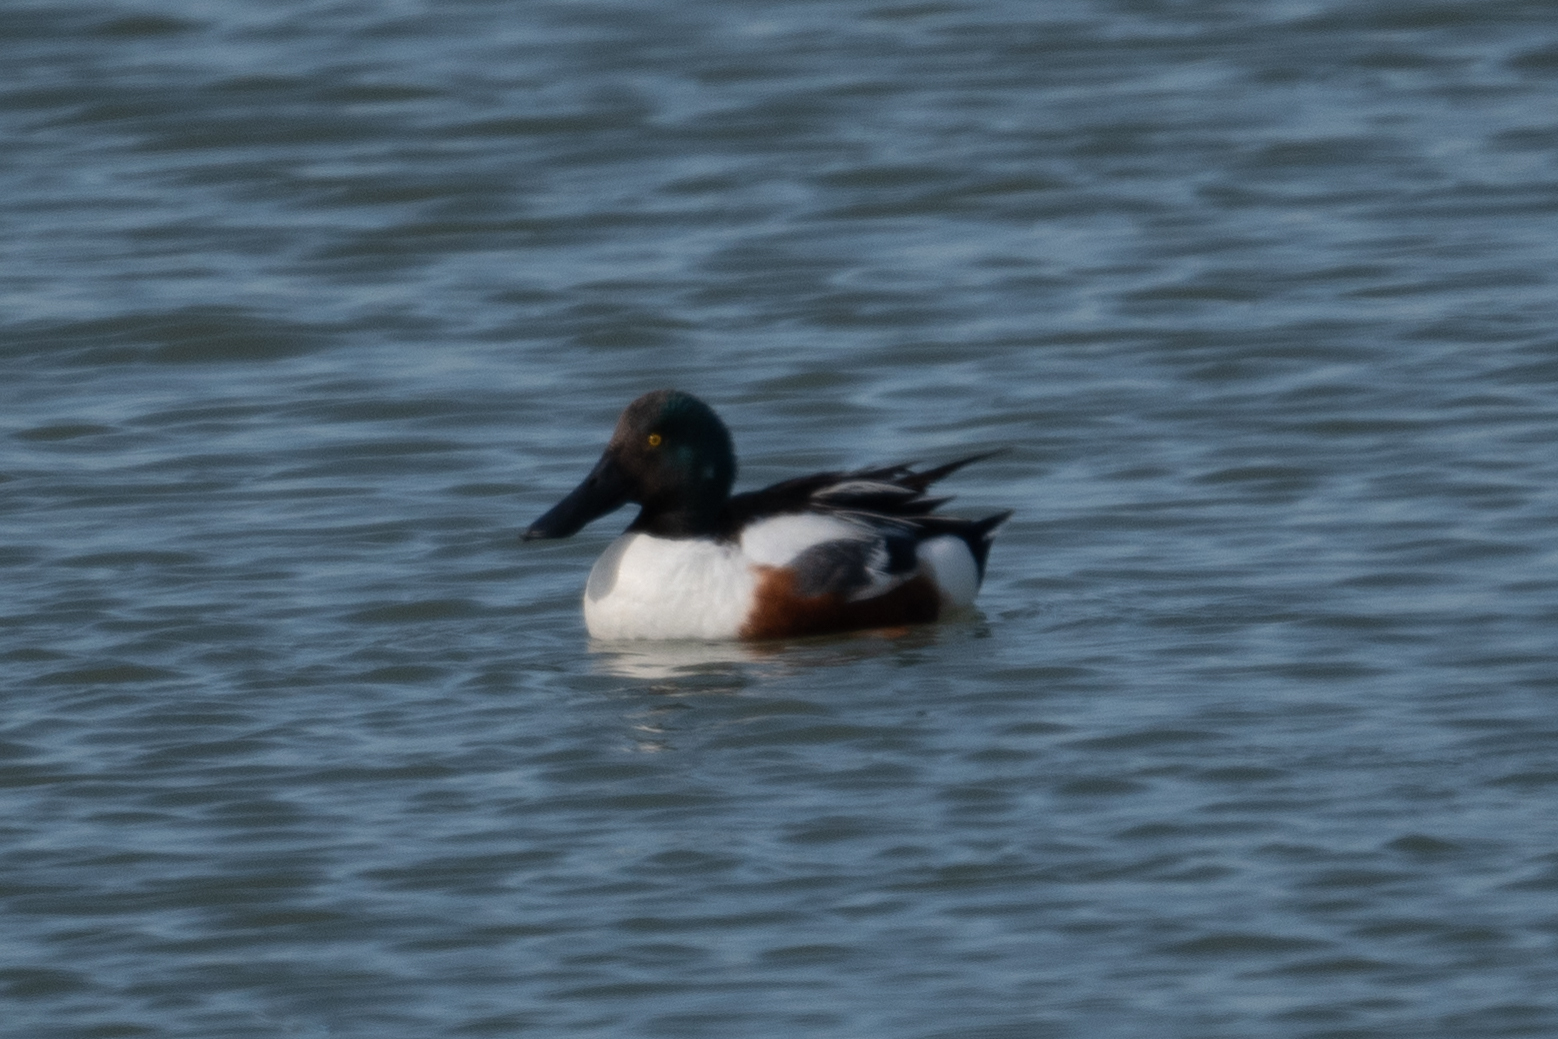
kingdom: Animalia
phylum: Chordata
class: Aves
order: Anseriformes
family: Anatidae
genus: Spatula
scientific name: Spatula clypeata
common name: Northern shoveler
